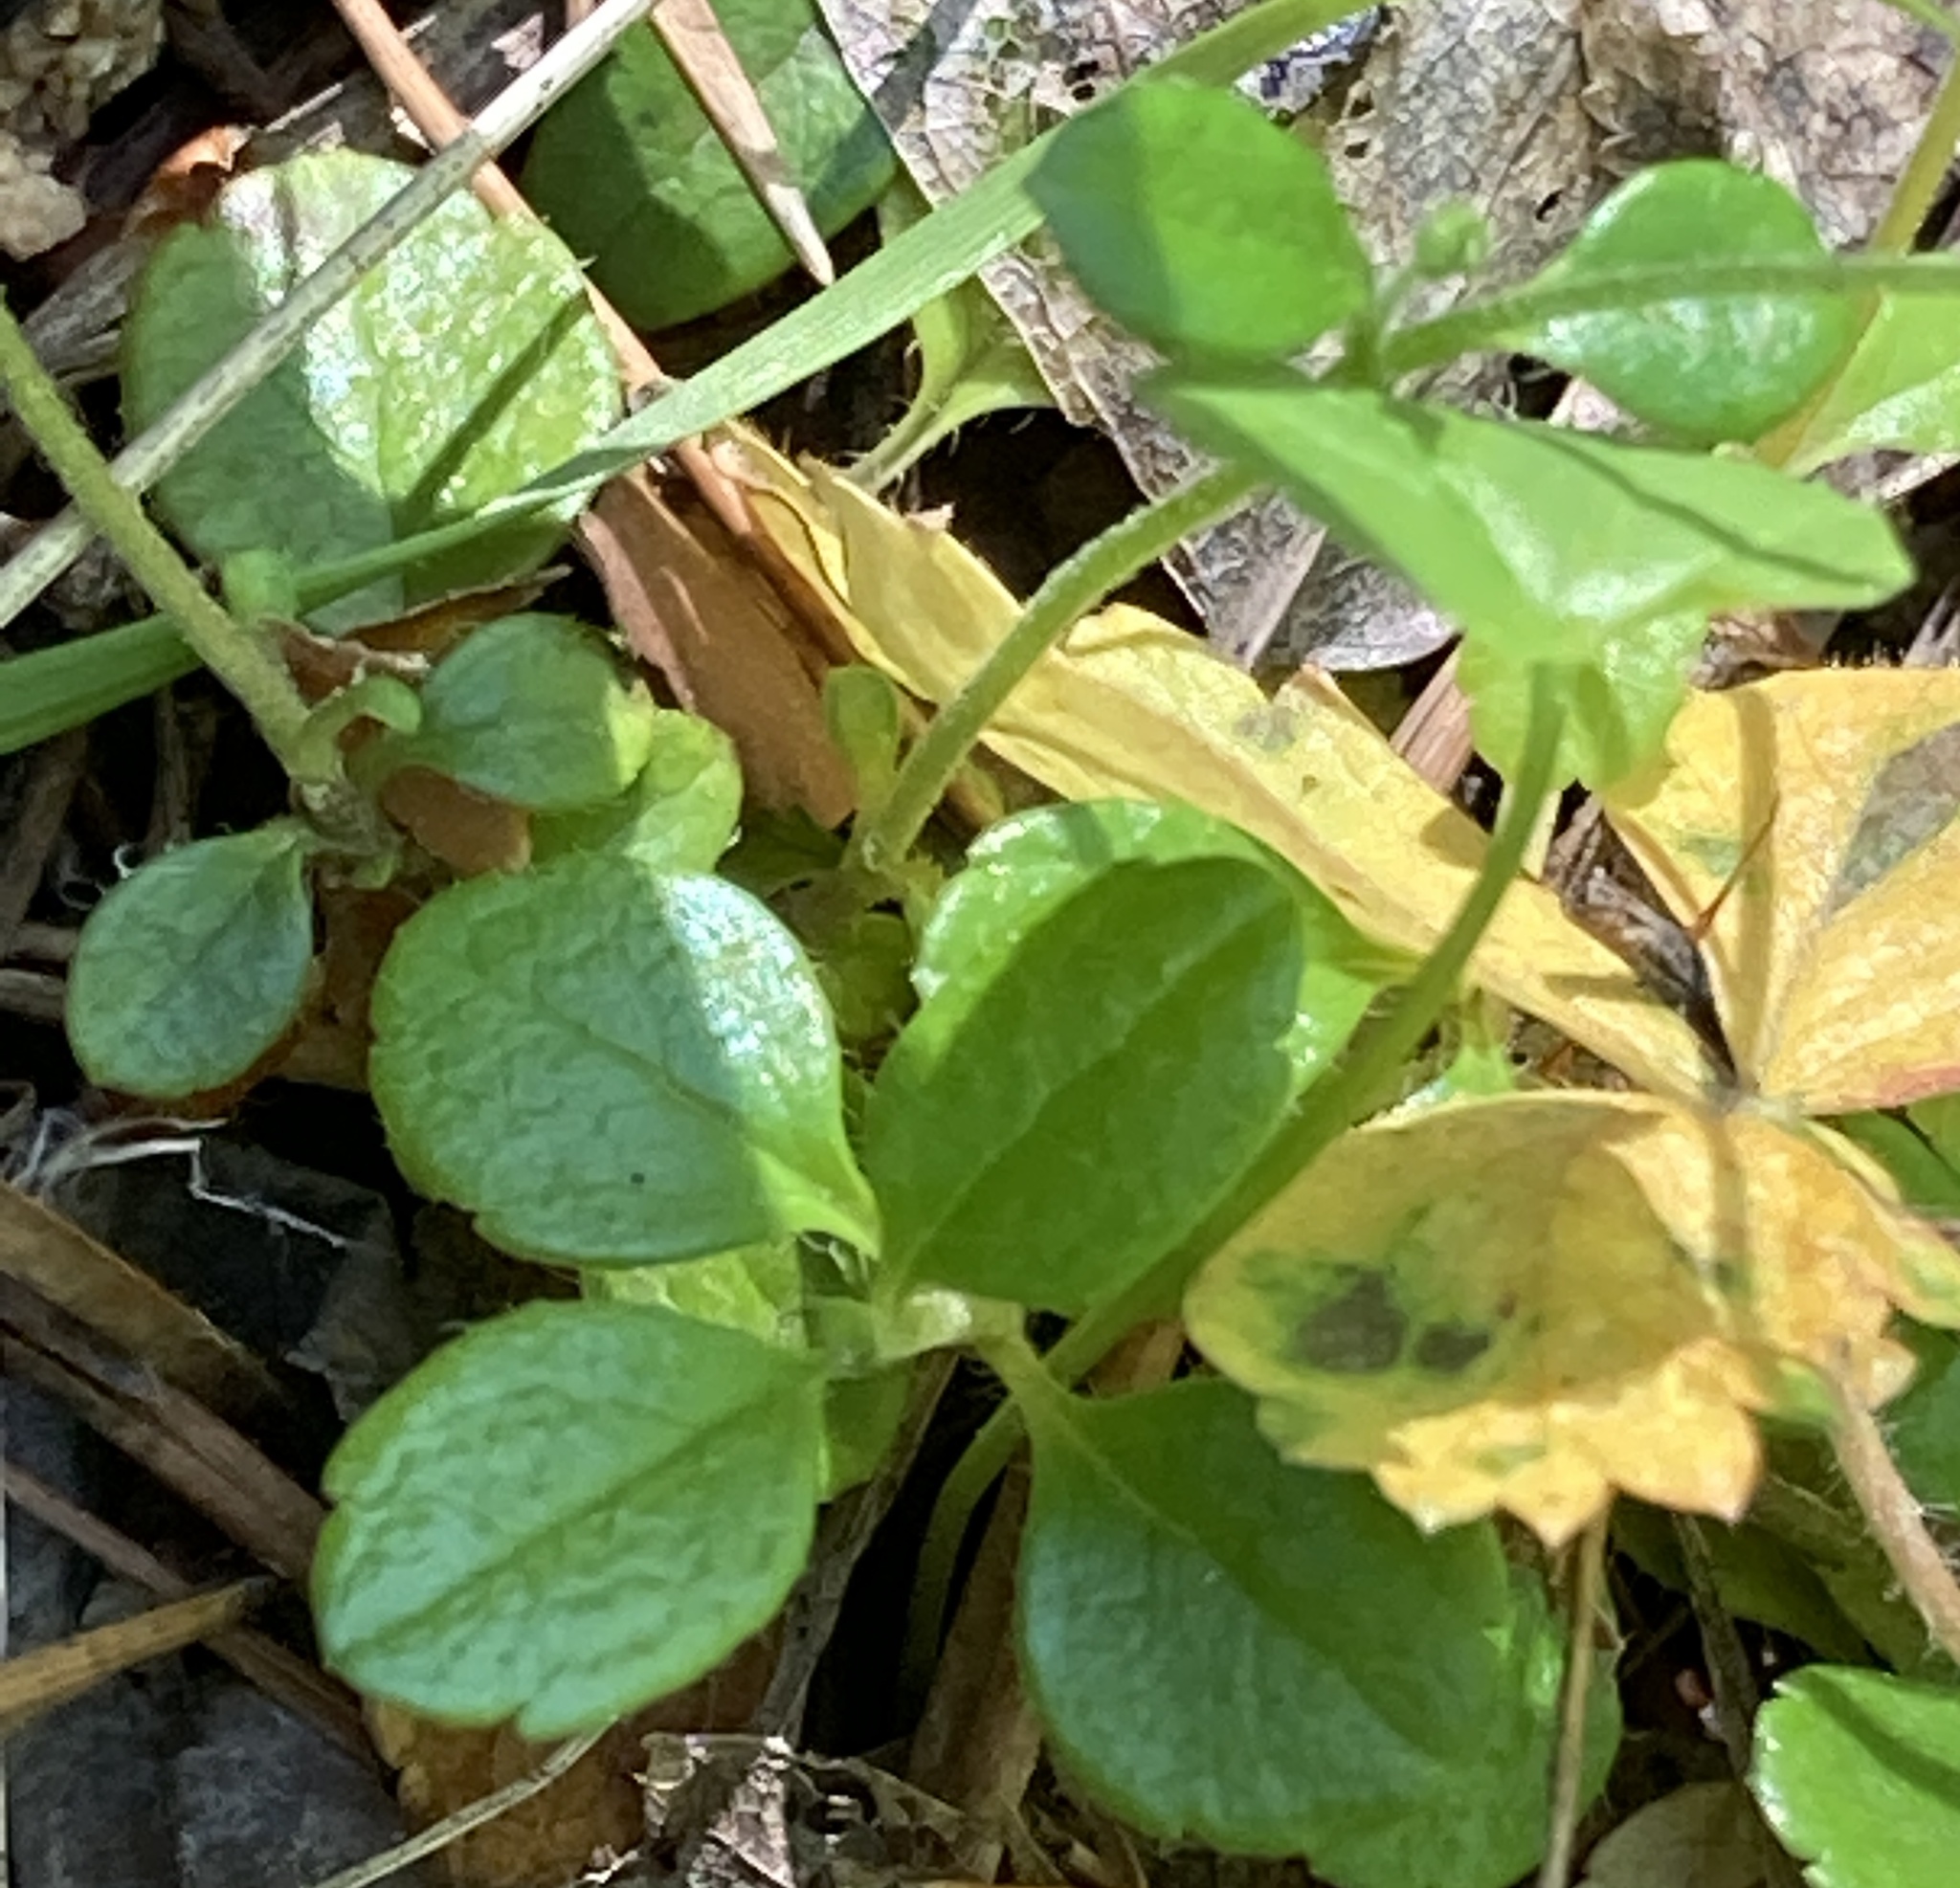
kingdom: Plantae
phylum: Tracheophyta
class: Magnoliopsida
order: Dipsacales
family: Caprifoliaceae
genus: Linnaea
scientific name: Linnaea borealis
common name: Twinflower
